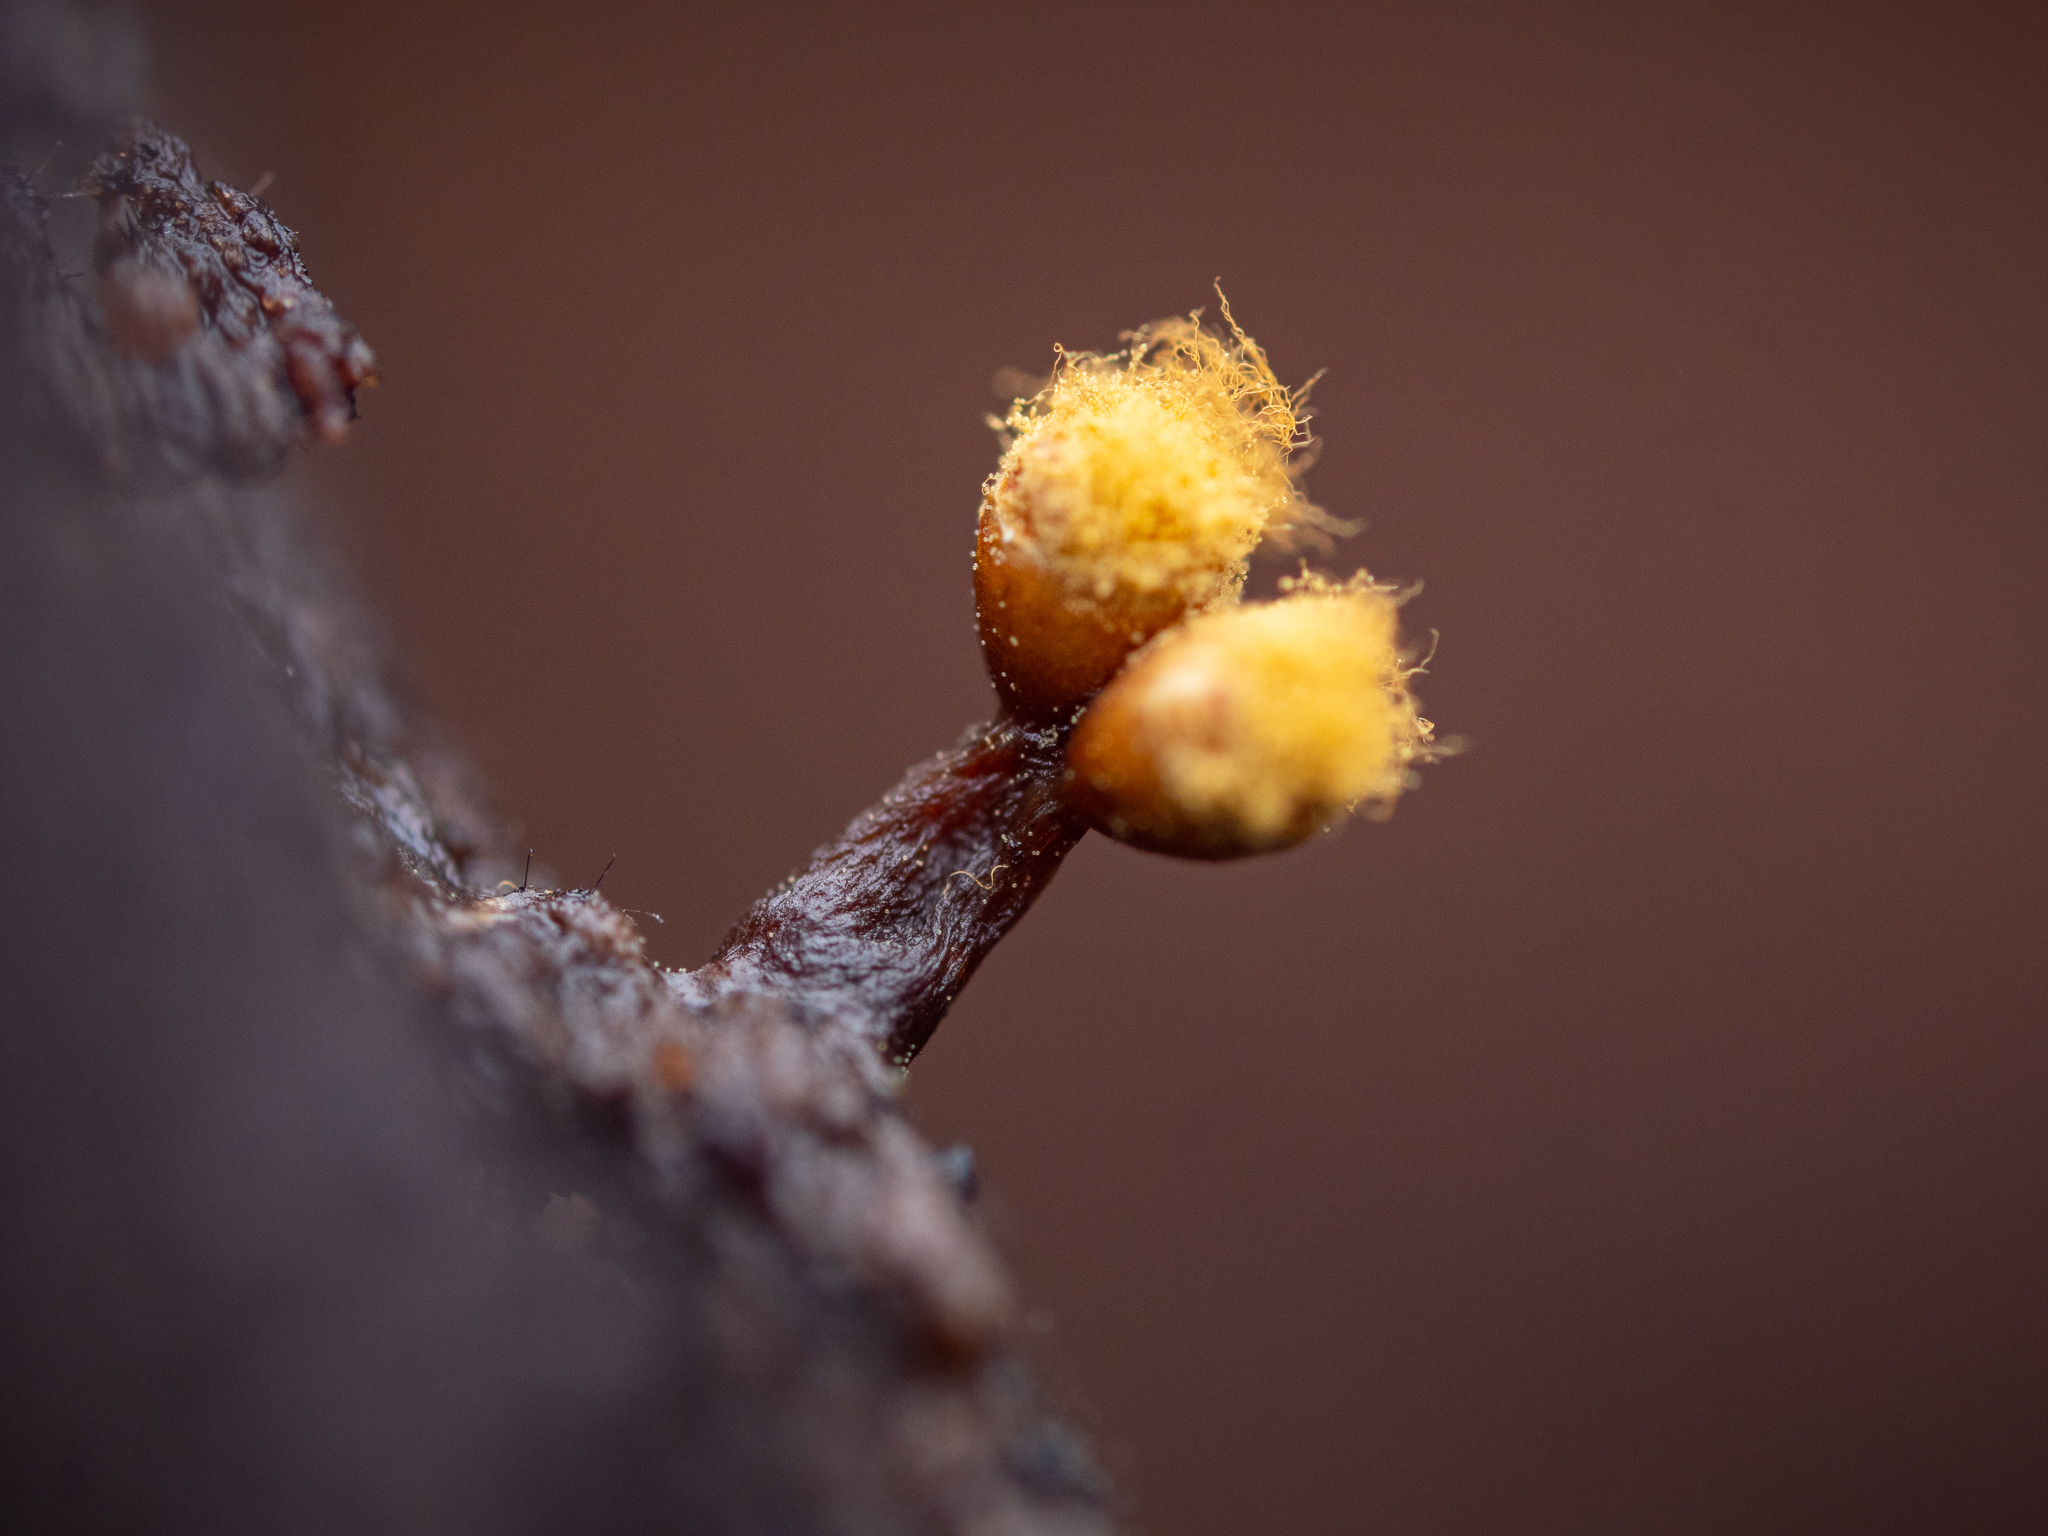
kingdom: Protozoa
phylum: Mycetozoa
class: Myxomycetes
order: Trichiales
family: Trichiaceae
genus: Trichia
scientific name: Trichia ambigua
